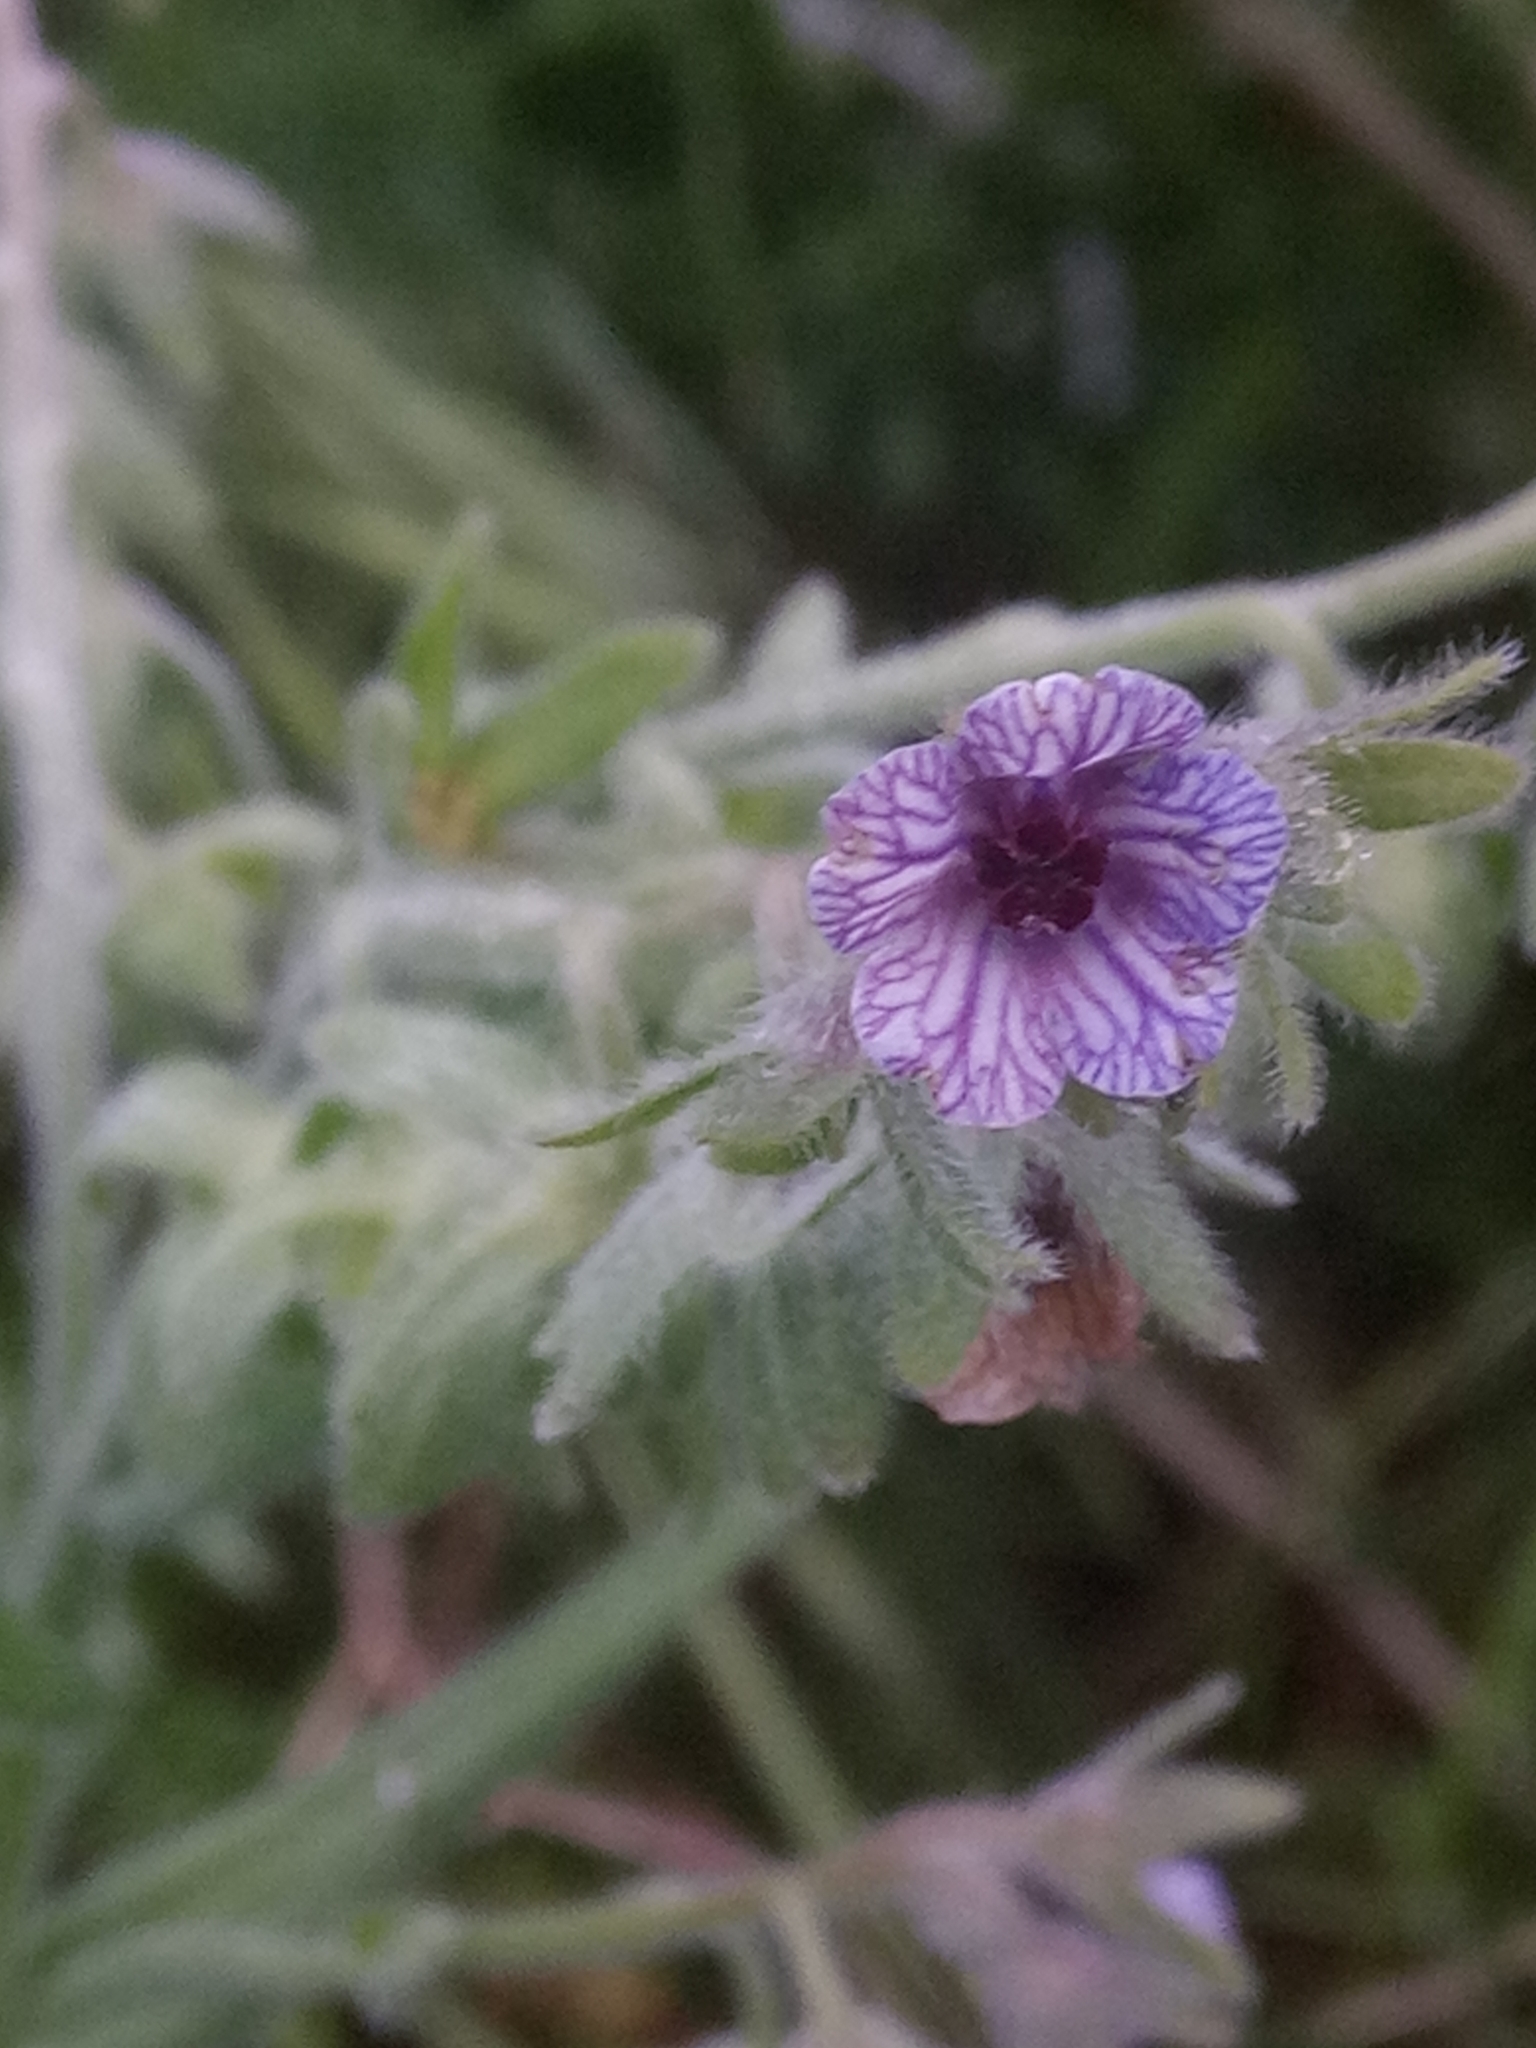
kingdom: Plantae
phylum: Tracheophyta
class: Magnoliopsida
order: Boraginales
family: Boraginaceae
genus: Cynoglossum
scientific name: Cynoglossum creticum
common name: Blue hound's tongue
